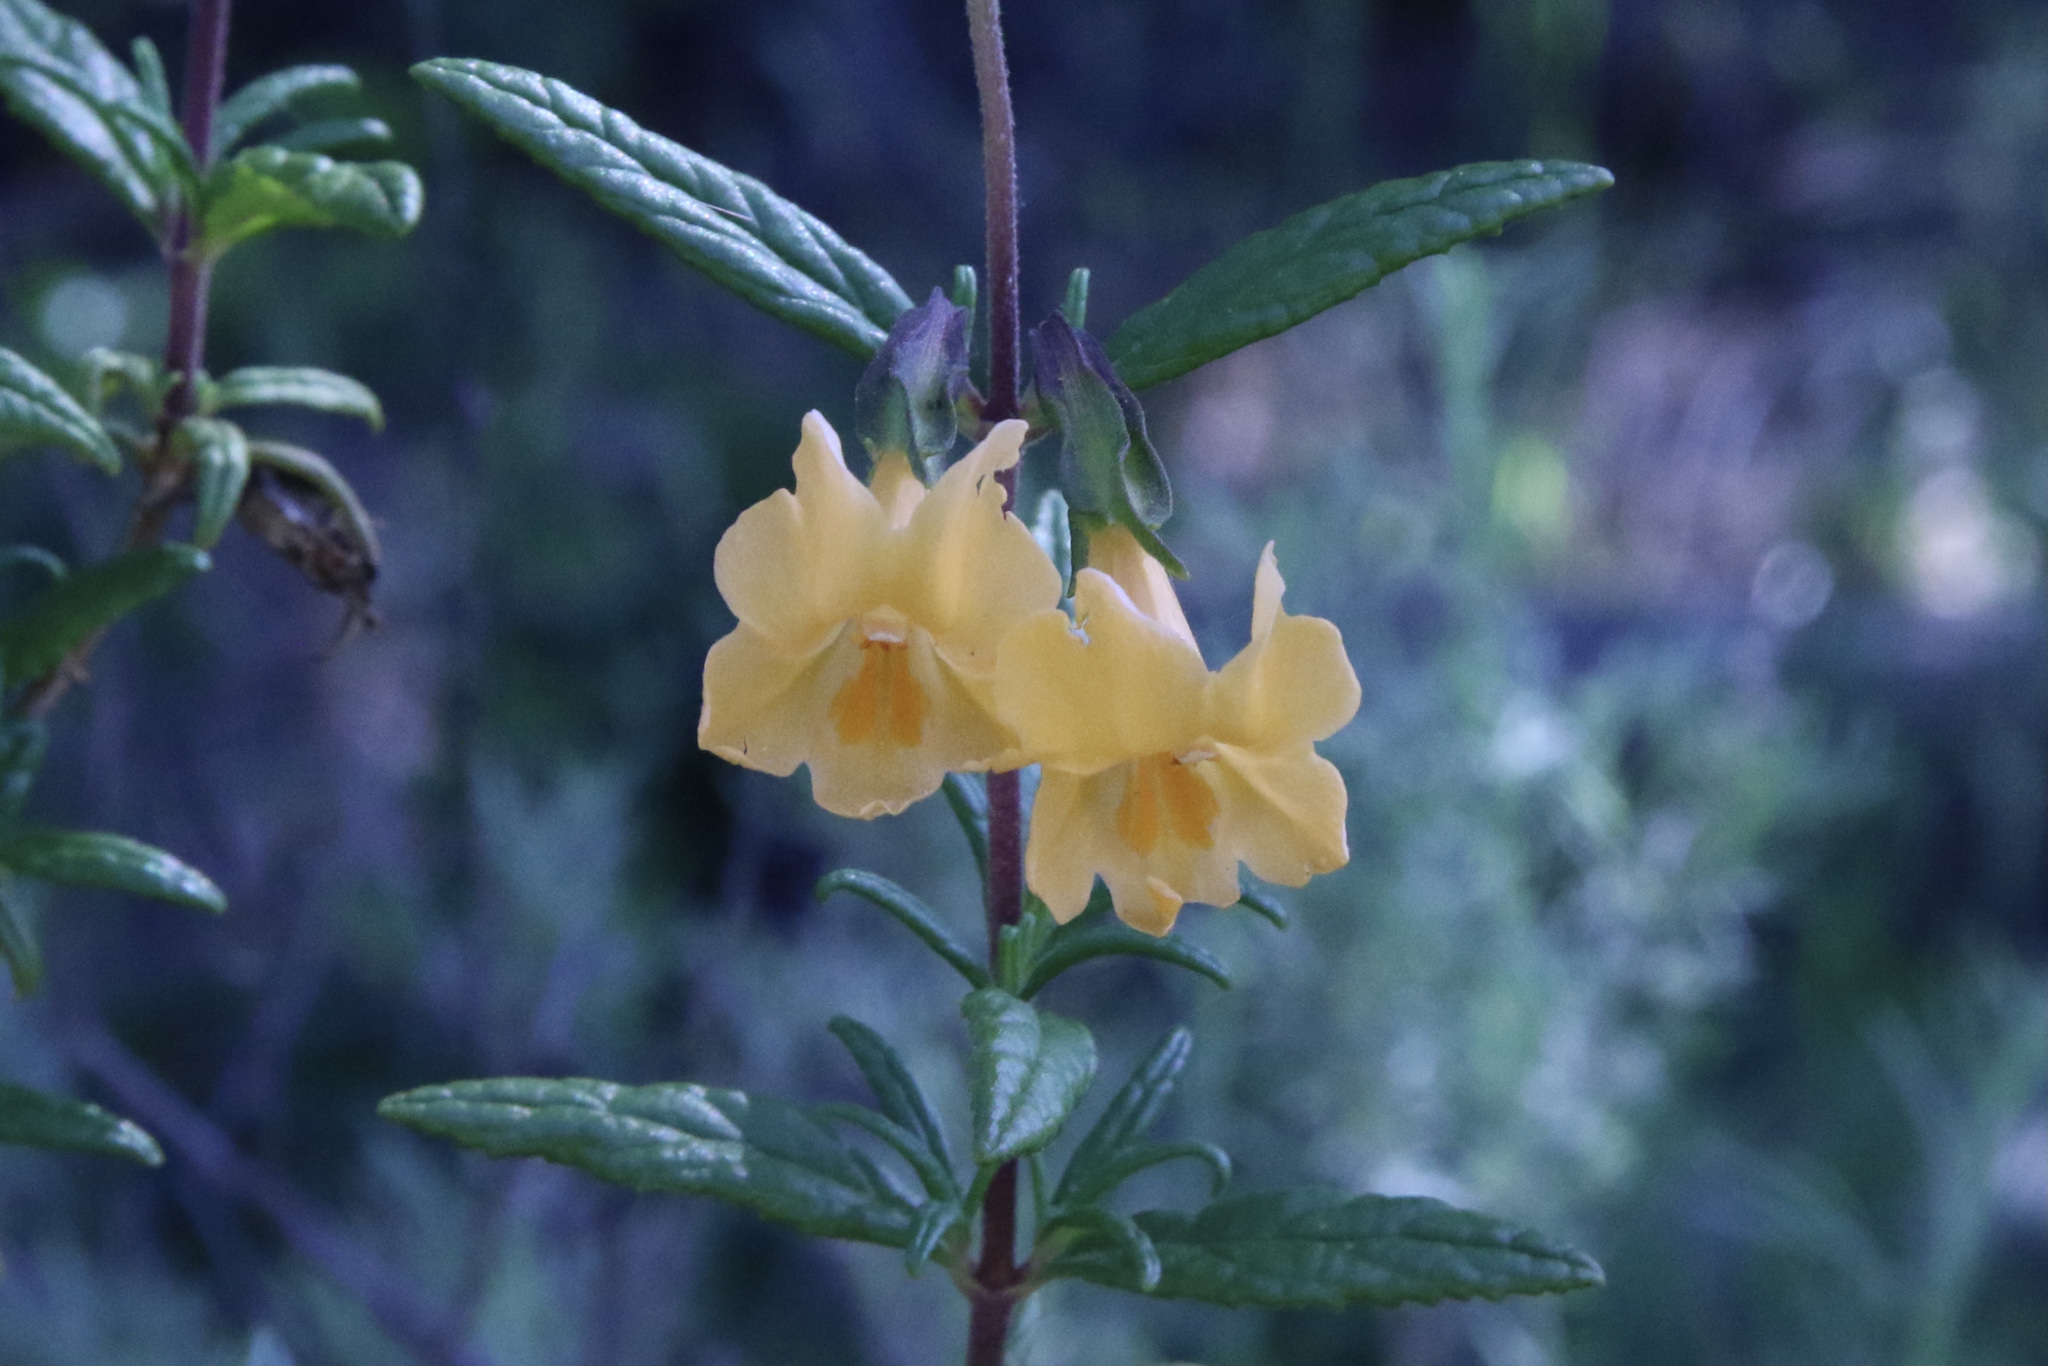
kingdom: Plantae
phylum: Tracheophyta
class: Magnoliopsida
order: Lamiales
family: Phrymaceae
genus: Diplacus
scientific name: Diplacus aurantiacus
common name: Bush monkey-flower
